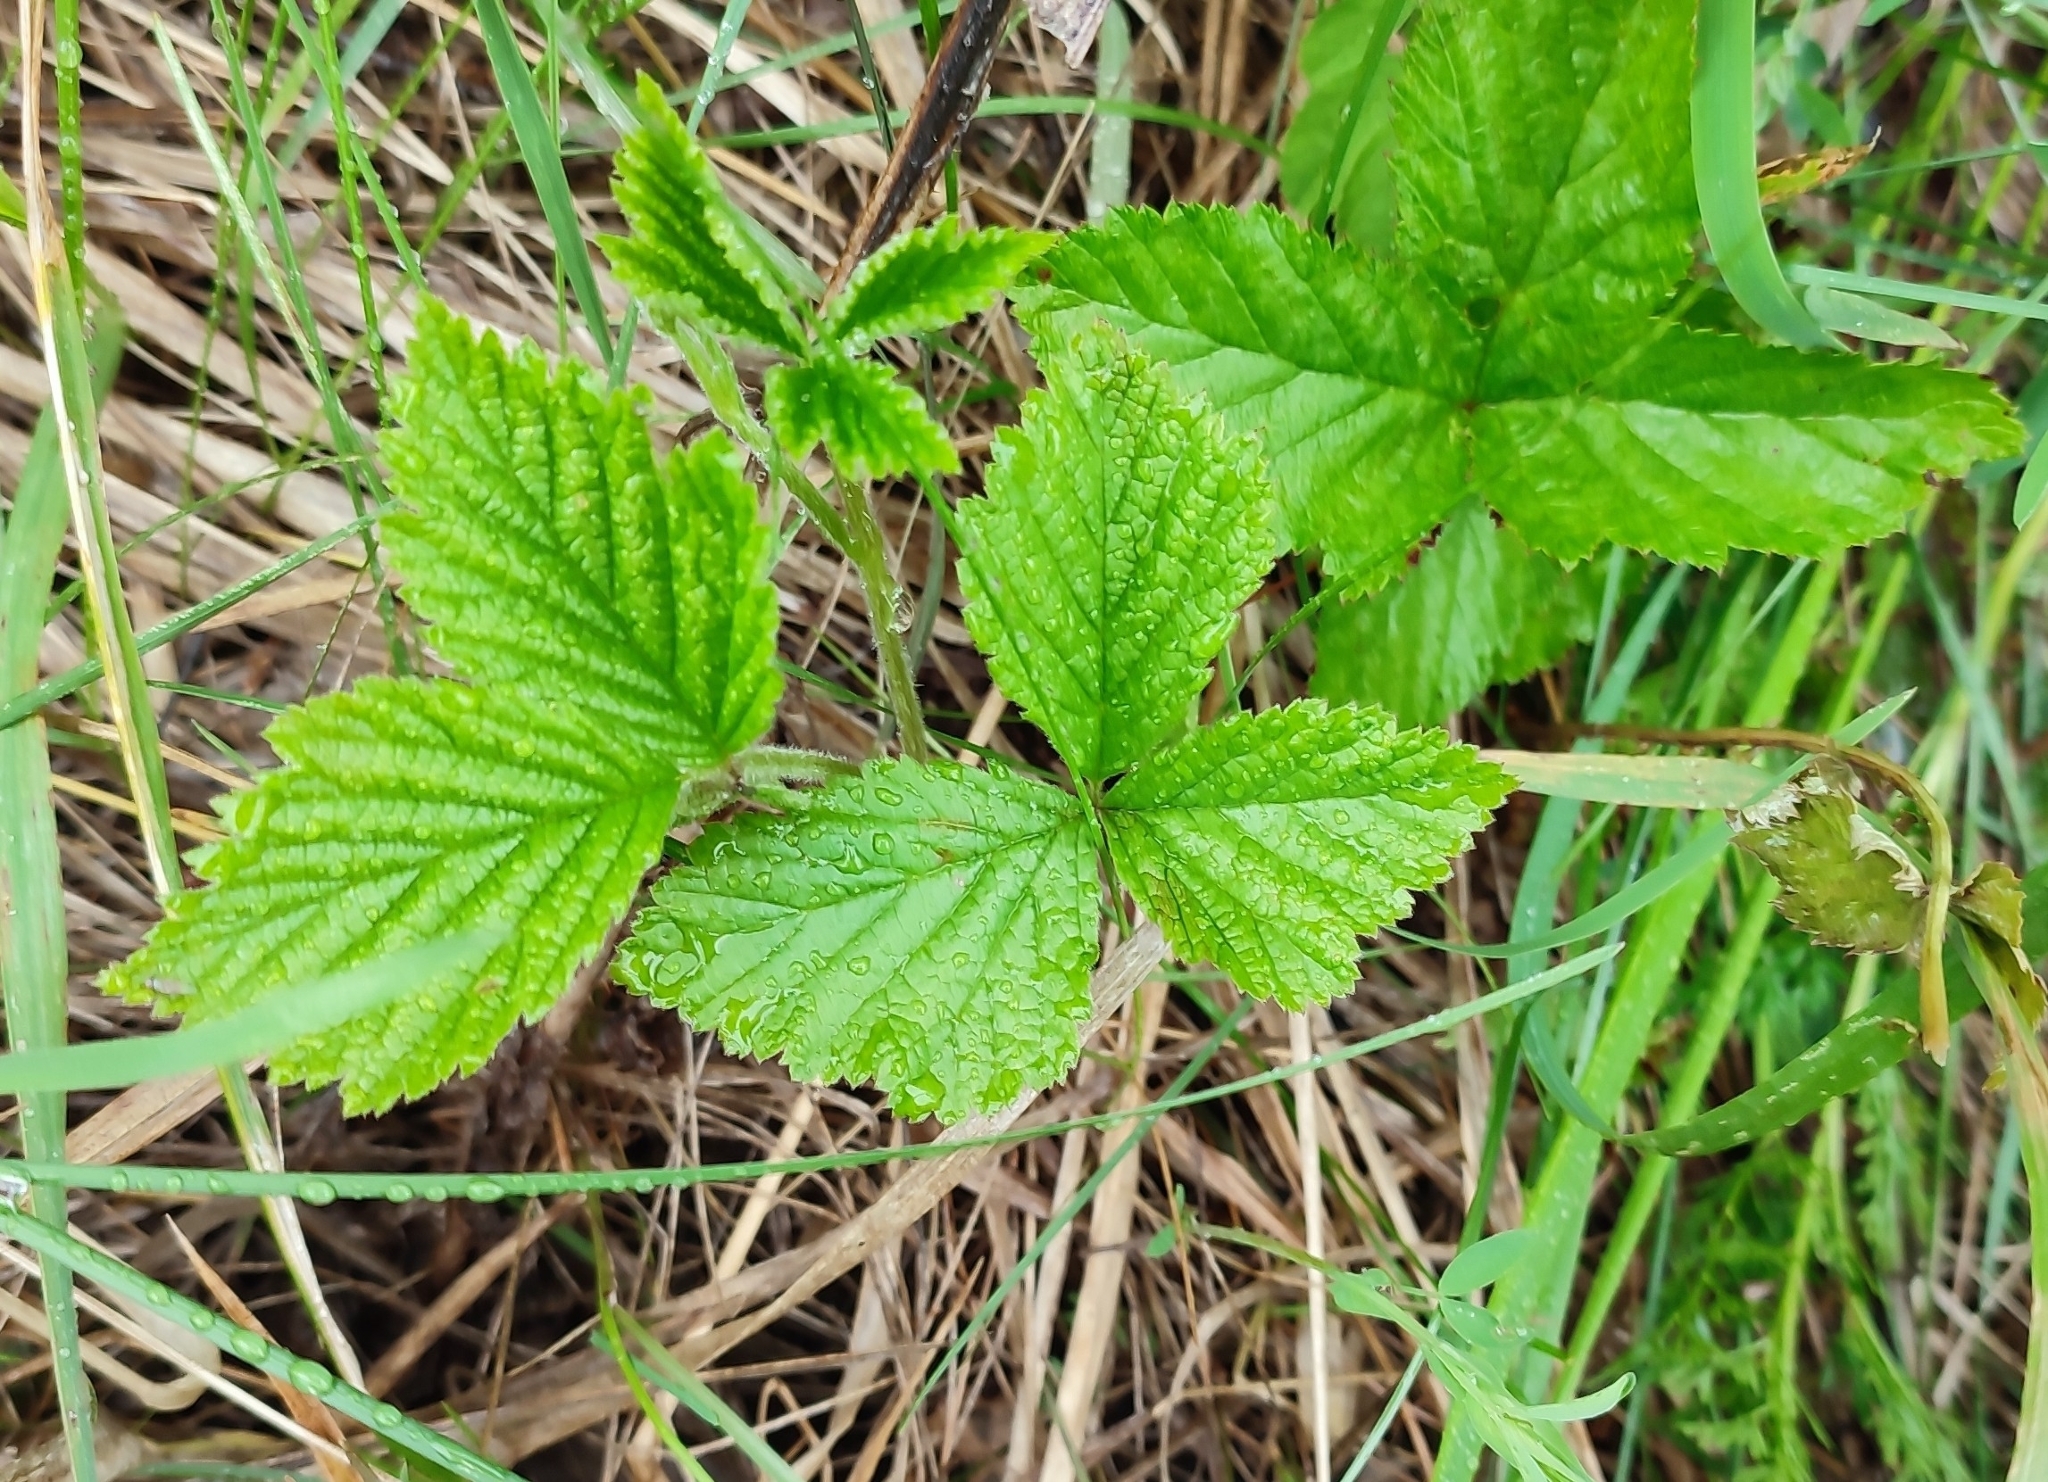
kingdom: Plantae
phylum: Tracheophyta
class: Magnoliopsida
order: Rosales
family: Rosaceae
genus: Rubus
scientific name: Rubus saxatilis
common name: Stone bramble
